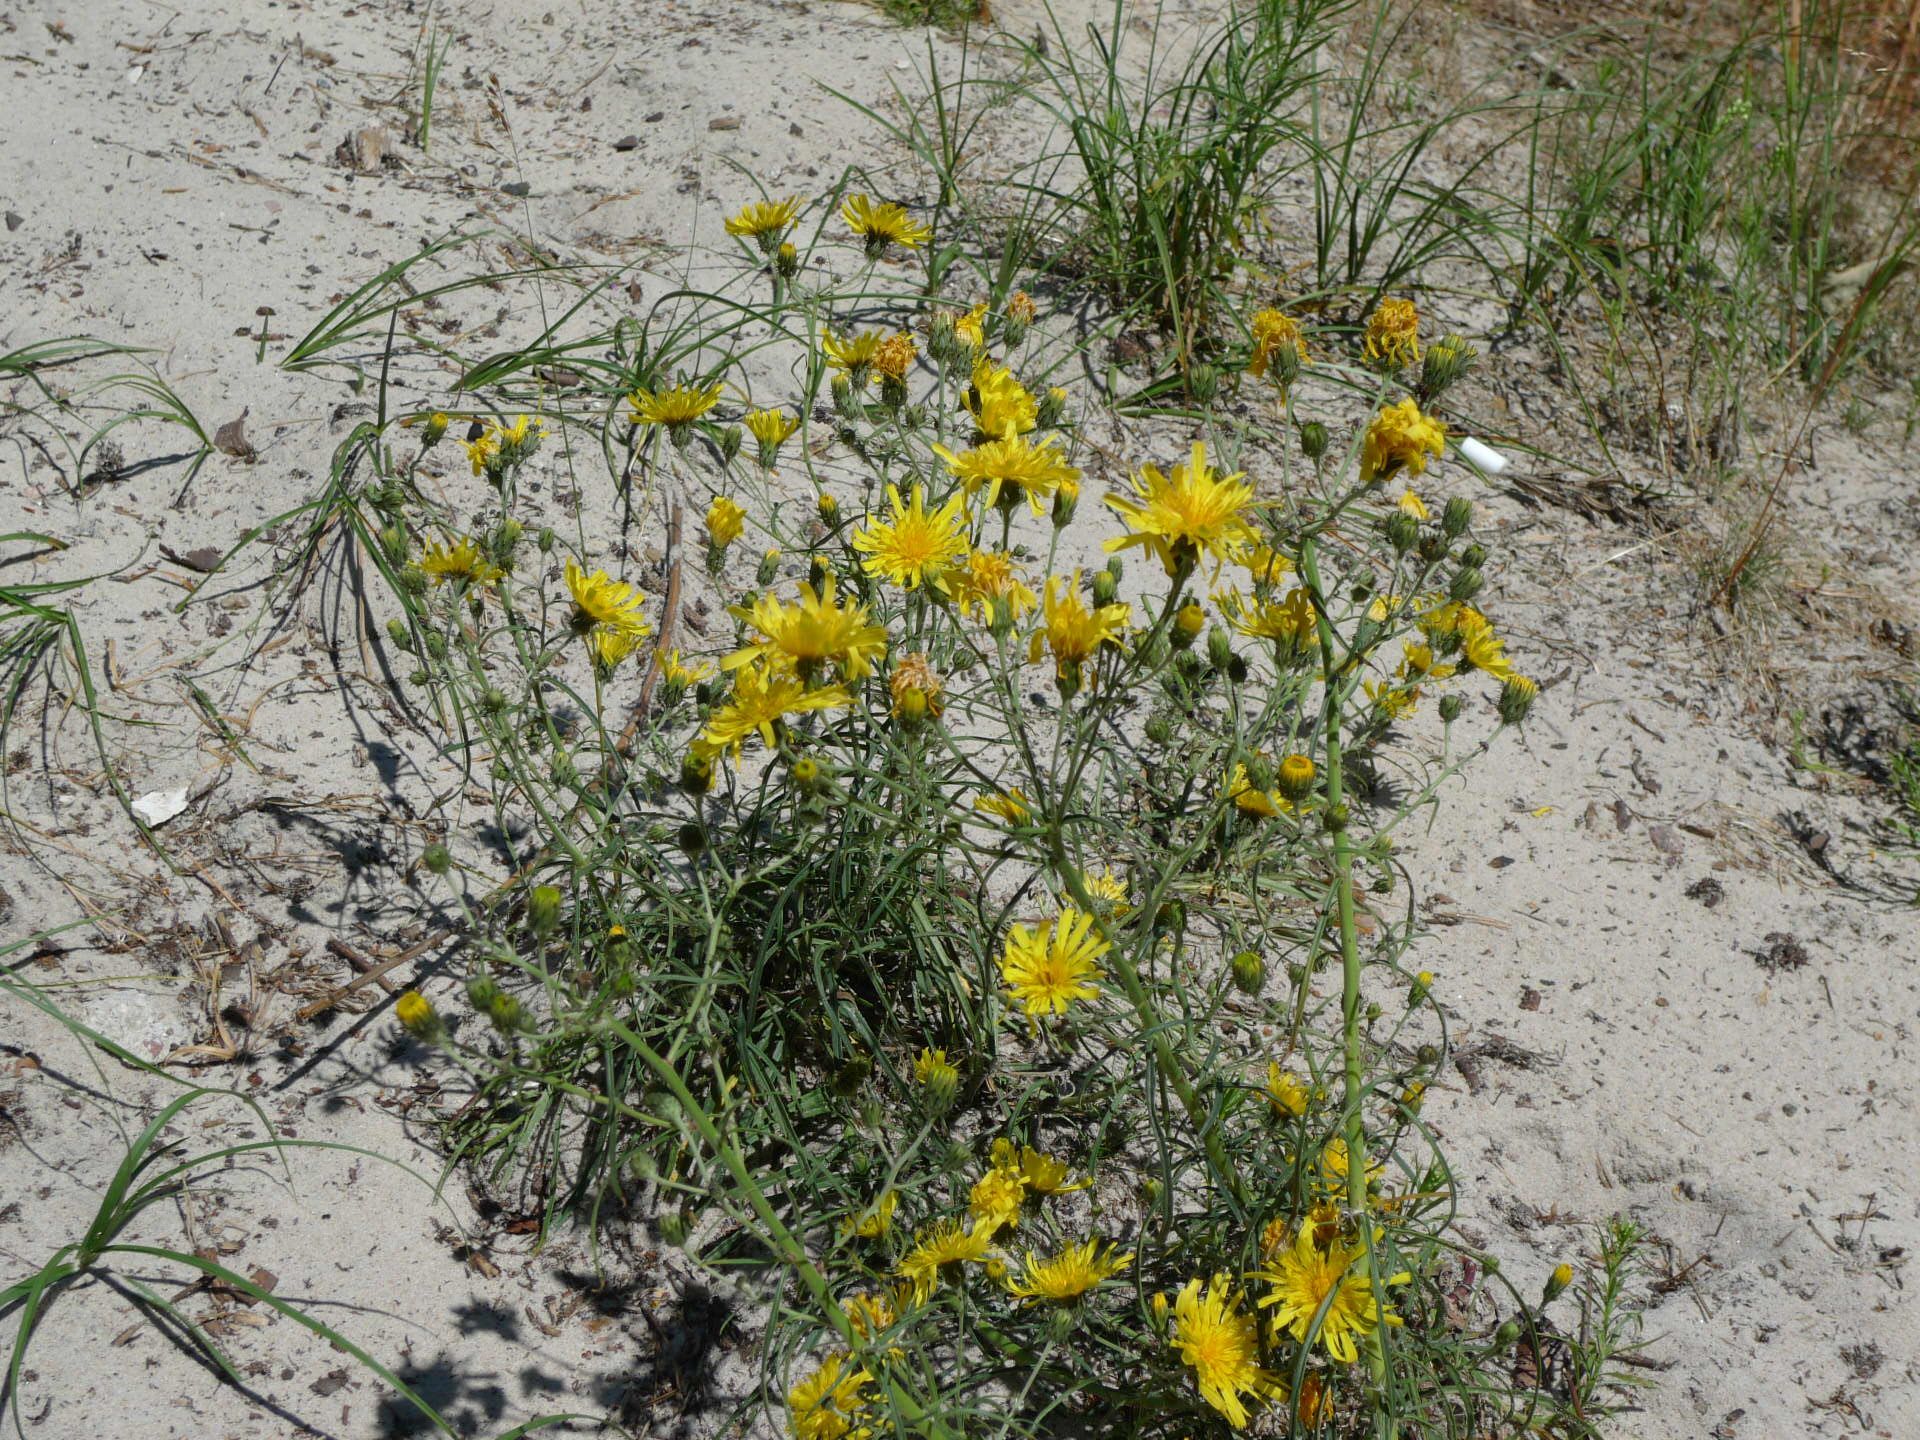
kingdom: Plantae
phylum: Tracheophyta
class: Magnoliopsida
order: Asterales
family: Asteraceae
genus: Hieracium
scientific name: Hieracium umbellatum
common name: Northern hawkweed
